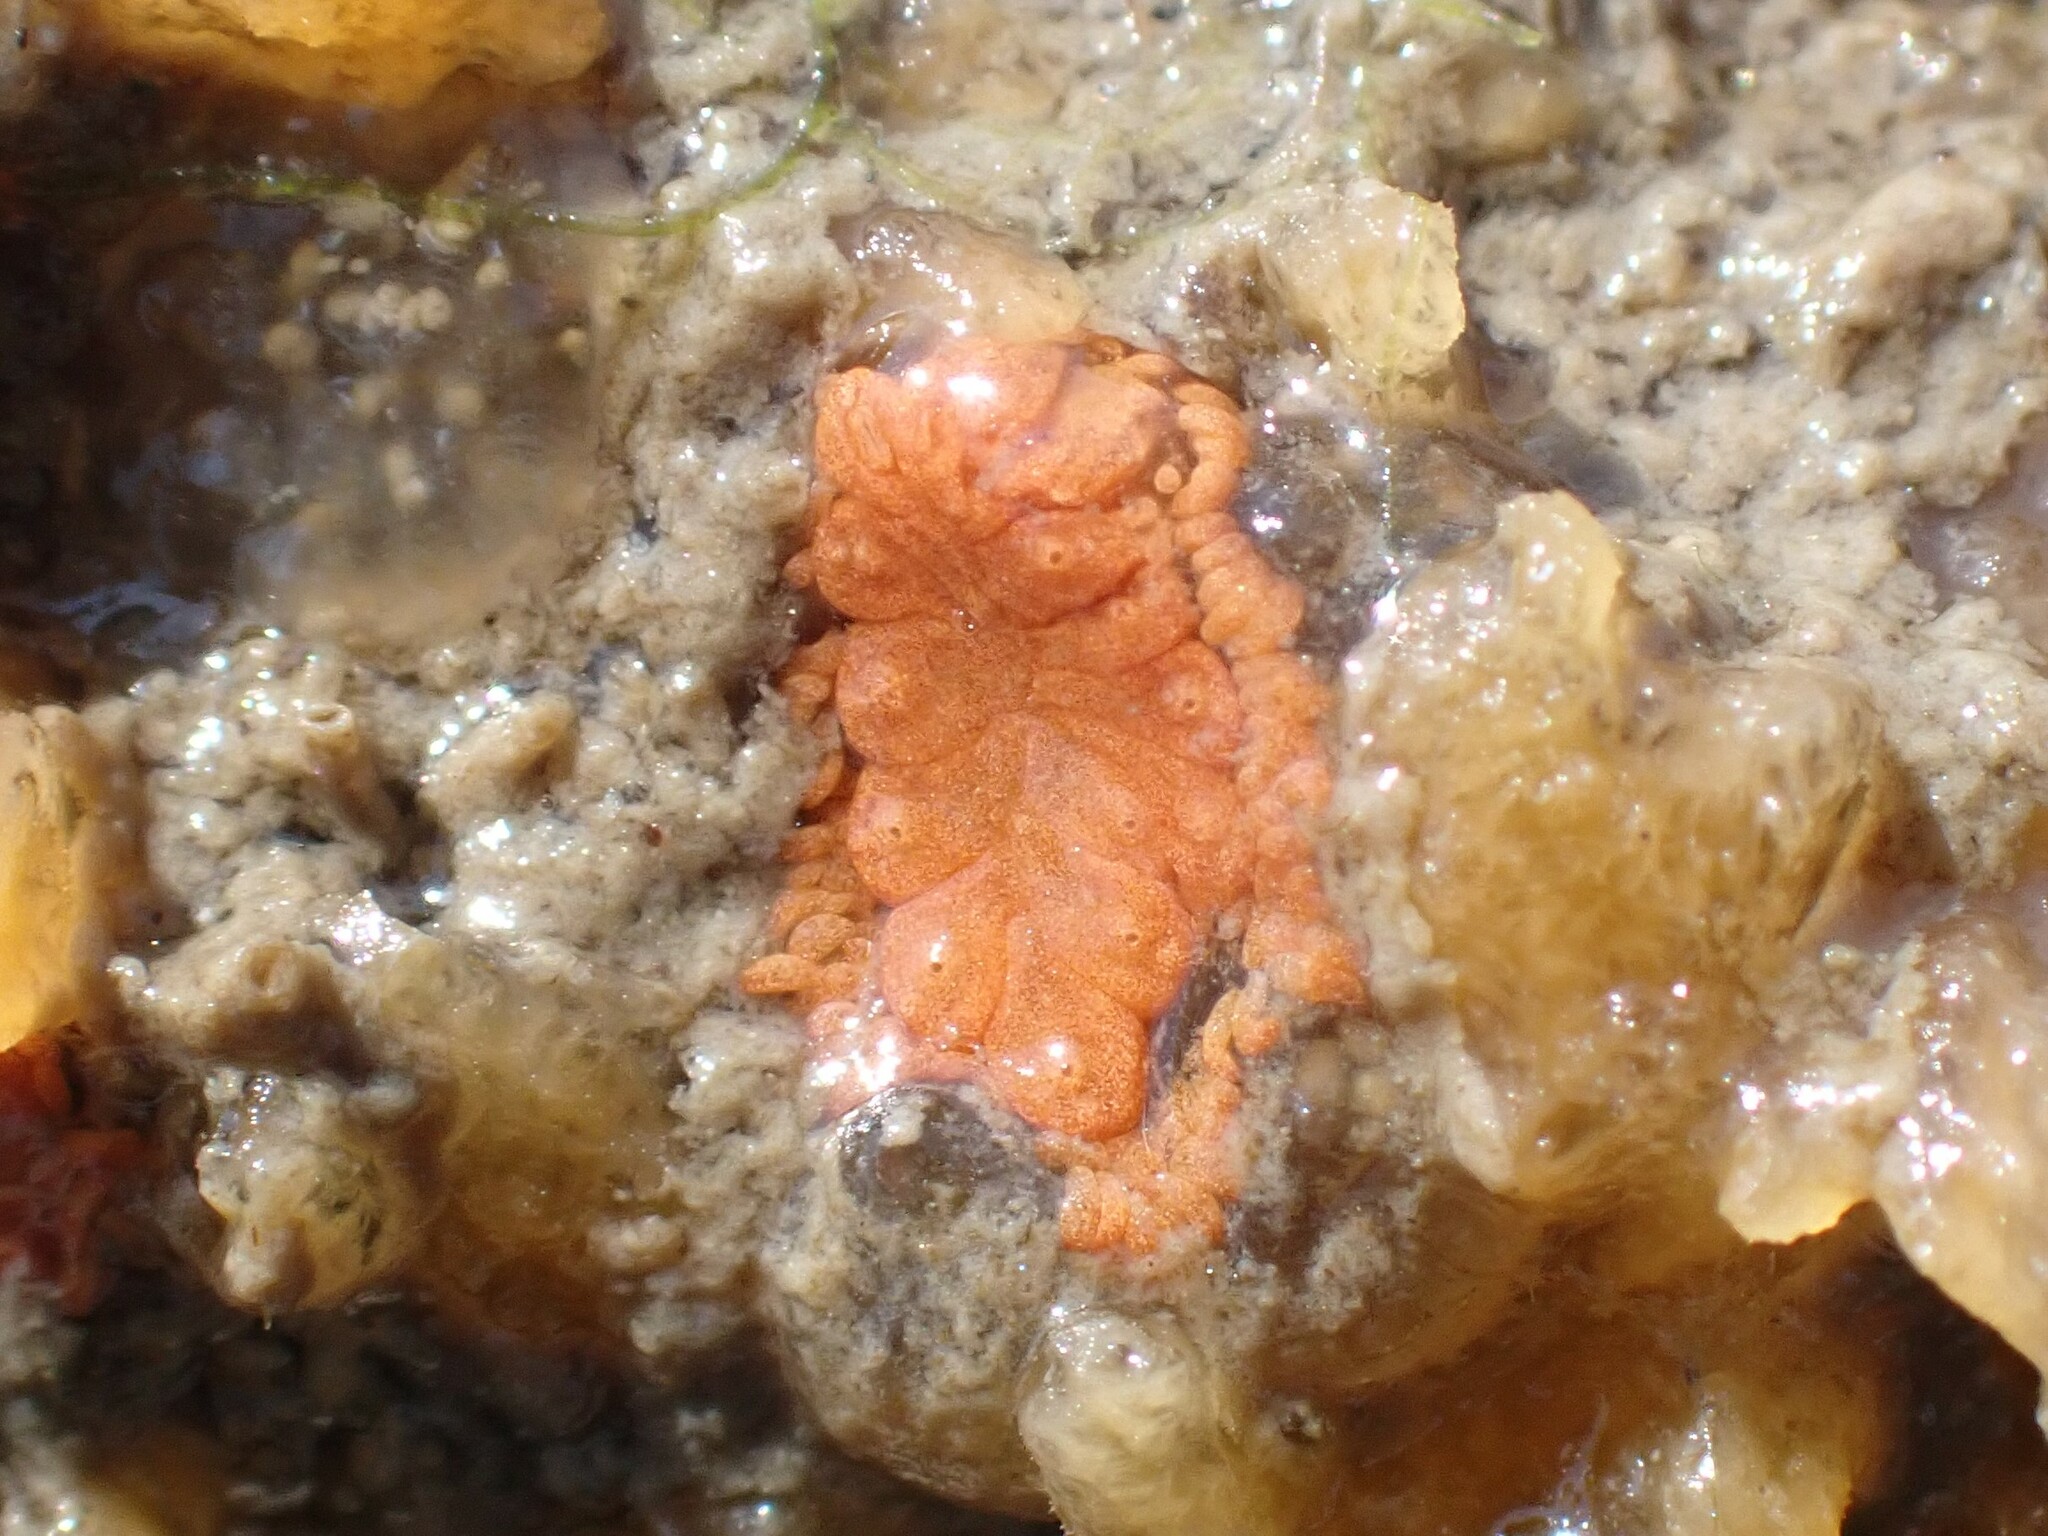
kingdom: Animalia
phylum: Chordata
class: Ascidiacea
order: Stolidobranchia
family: Styelidae
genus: Botrylloides
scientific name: Botrylloides violaceus
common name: Colonial sea squirt
